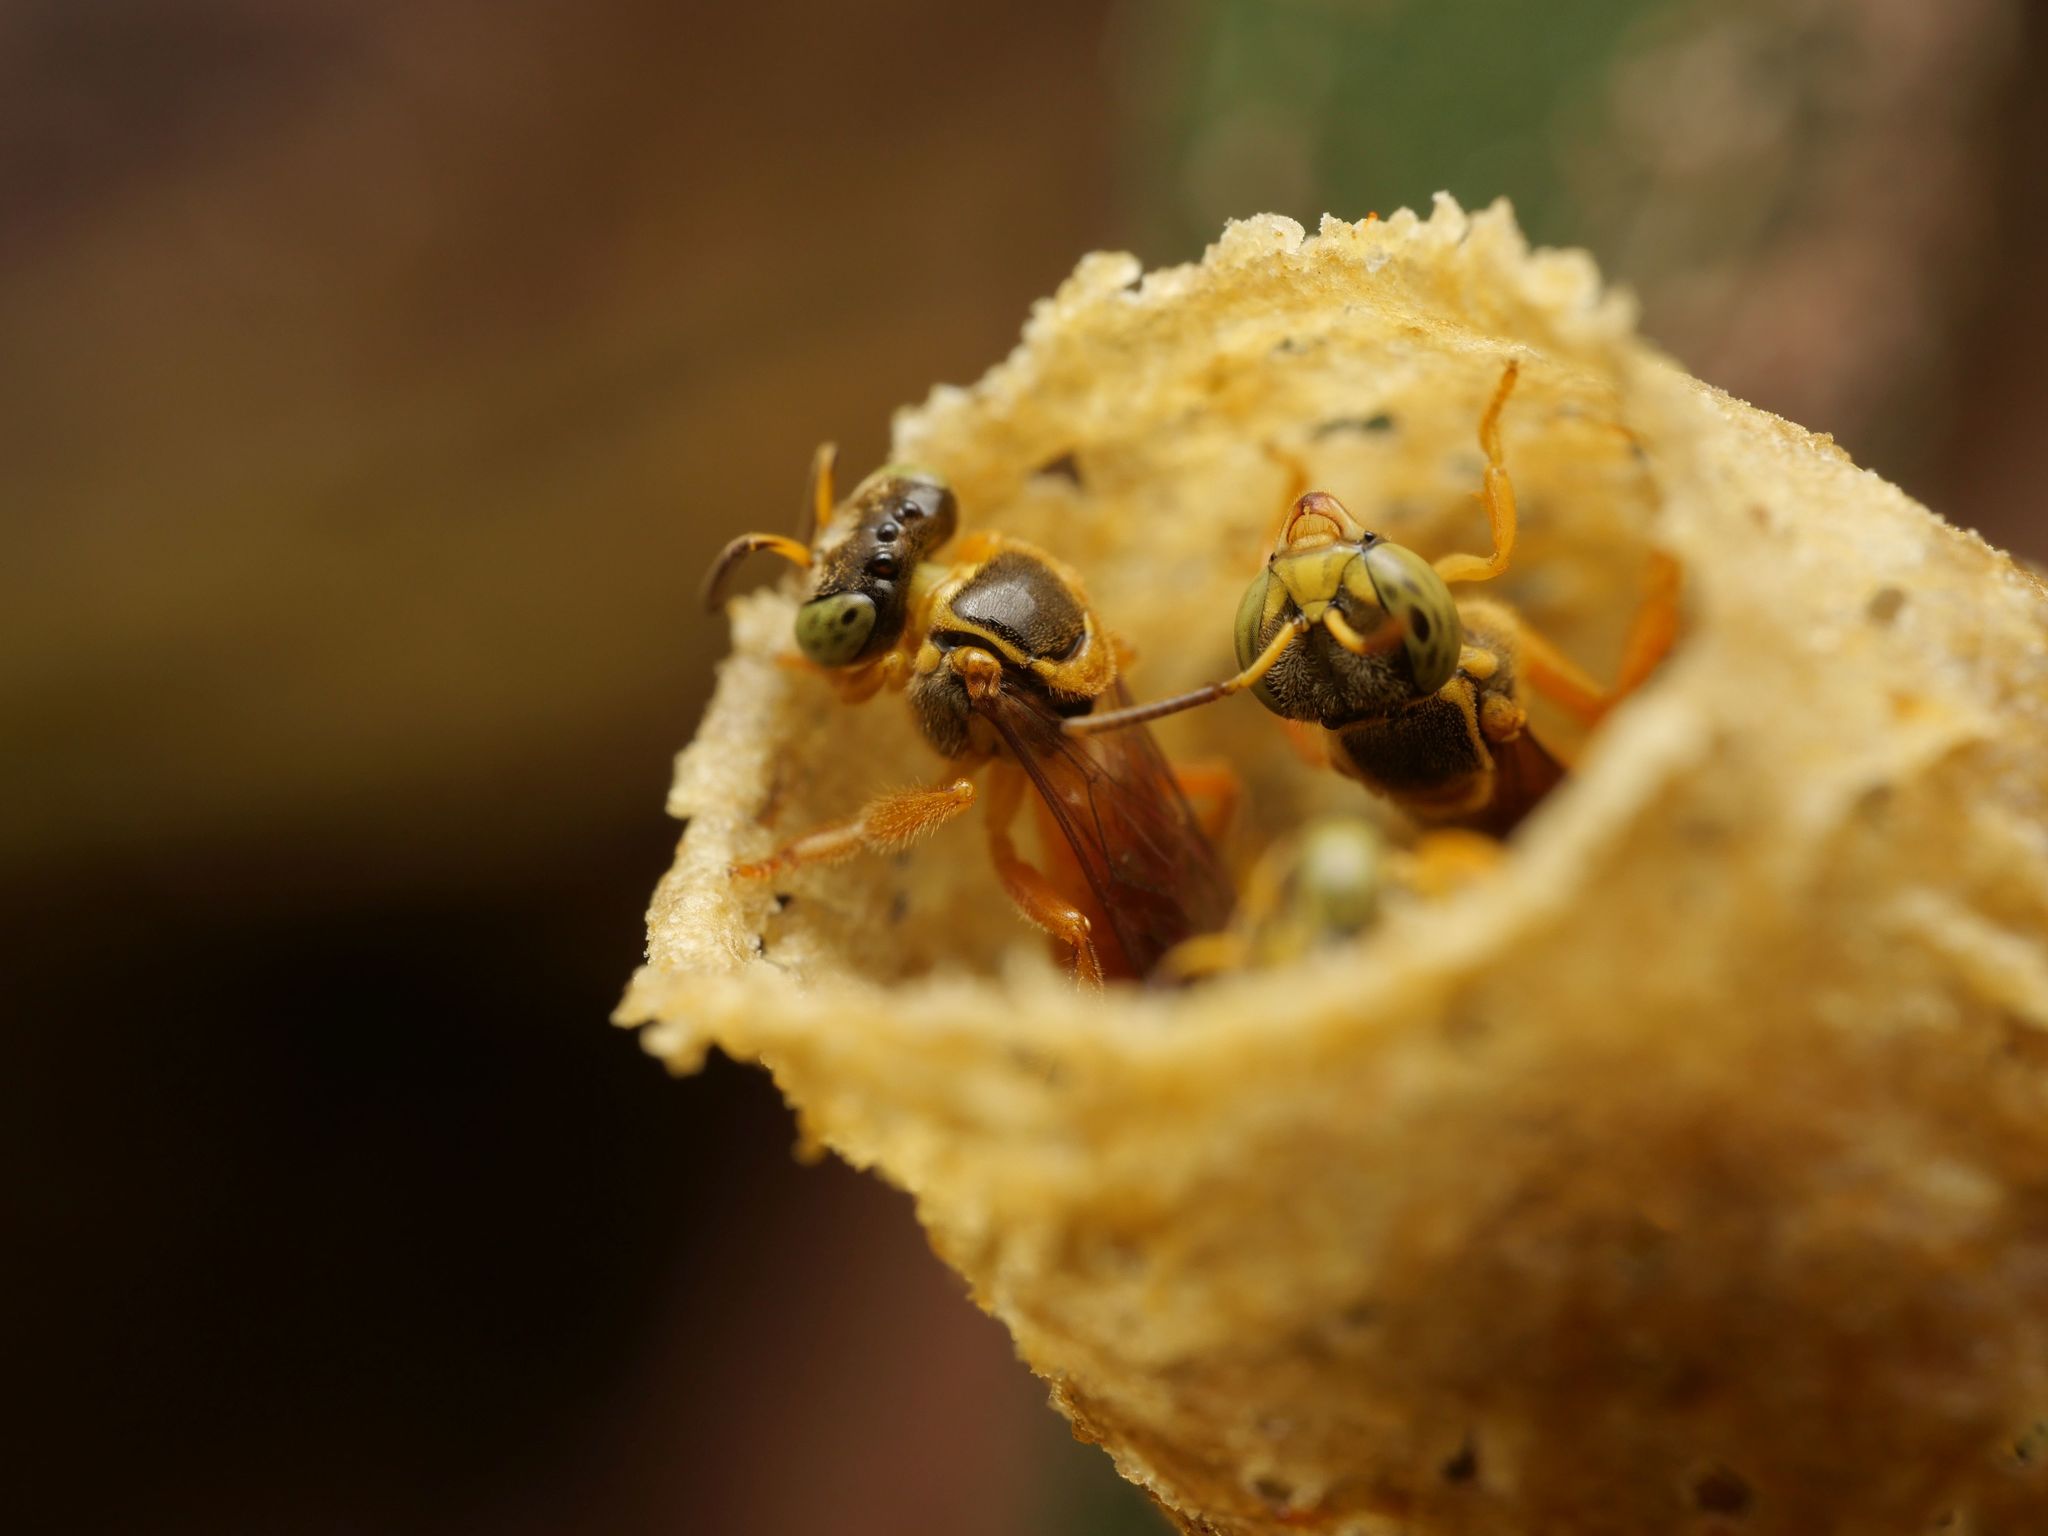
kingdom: Animalia
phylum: Arthropoda
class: Insecta
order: Hymenoptera
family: Apidae
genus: Tetragonisca
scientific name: Tetragonisca angustula
